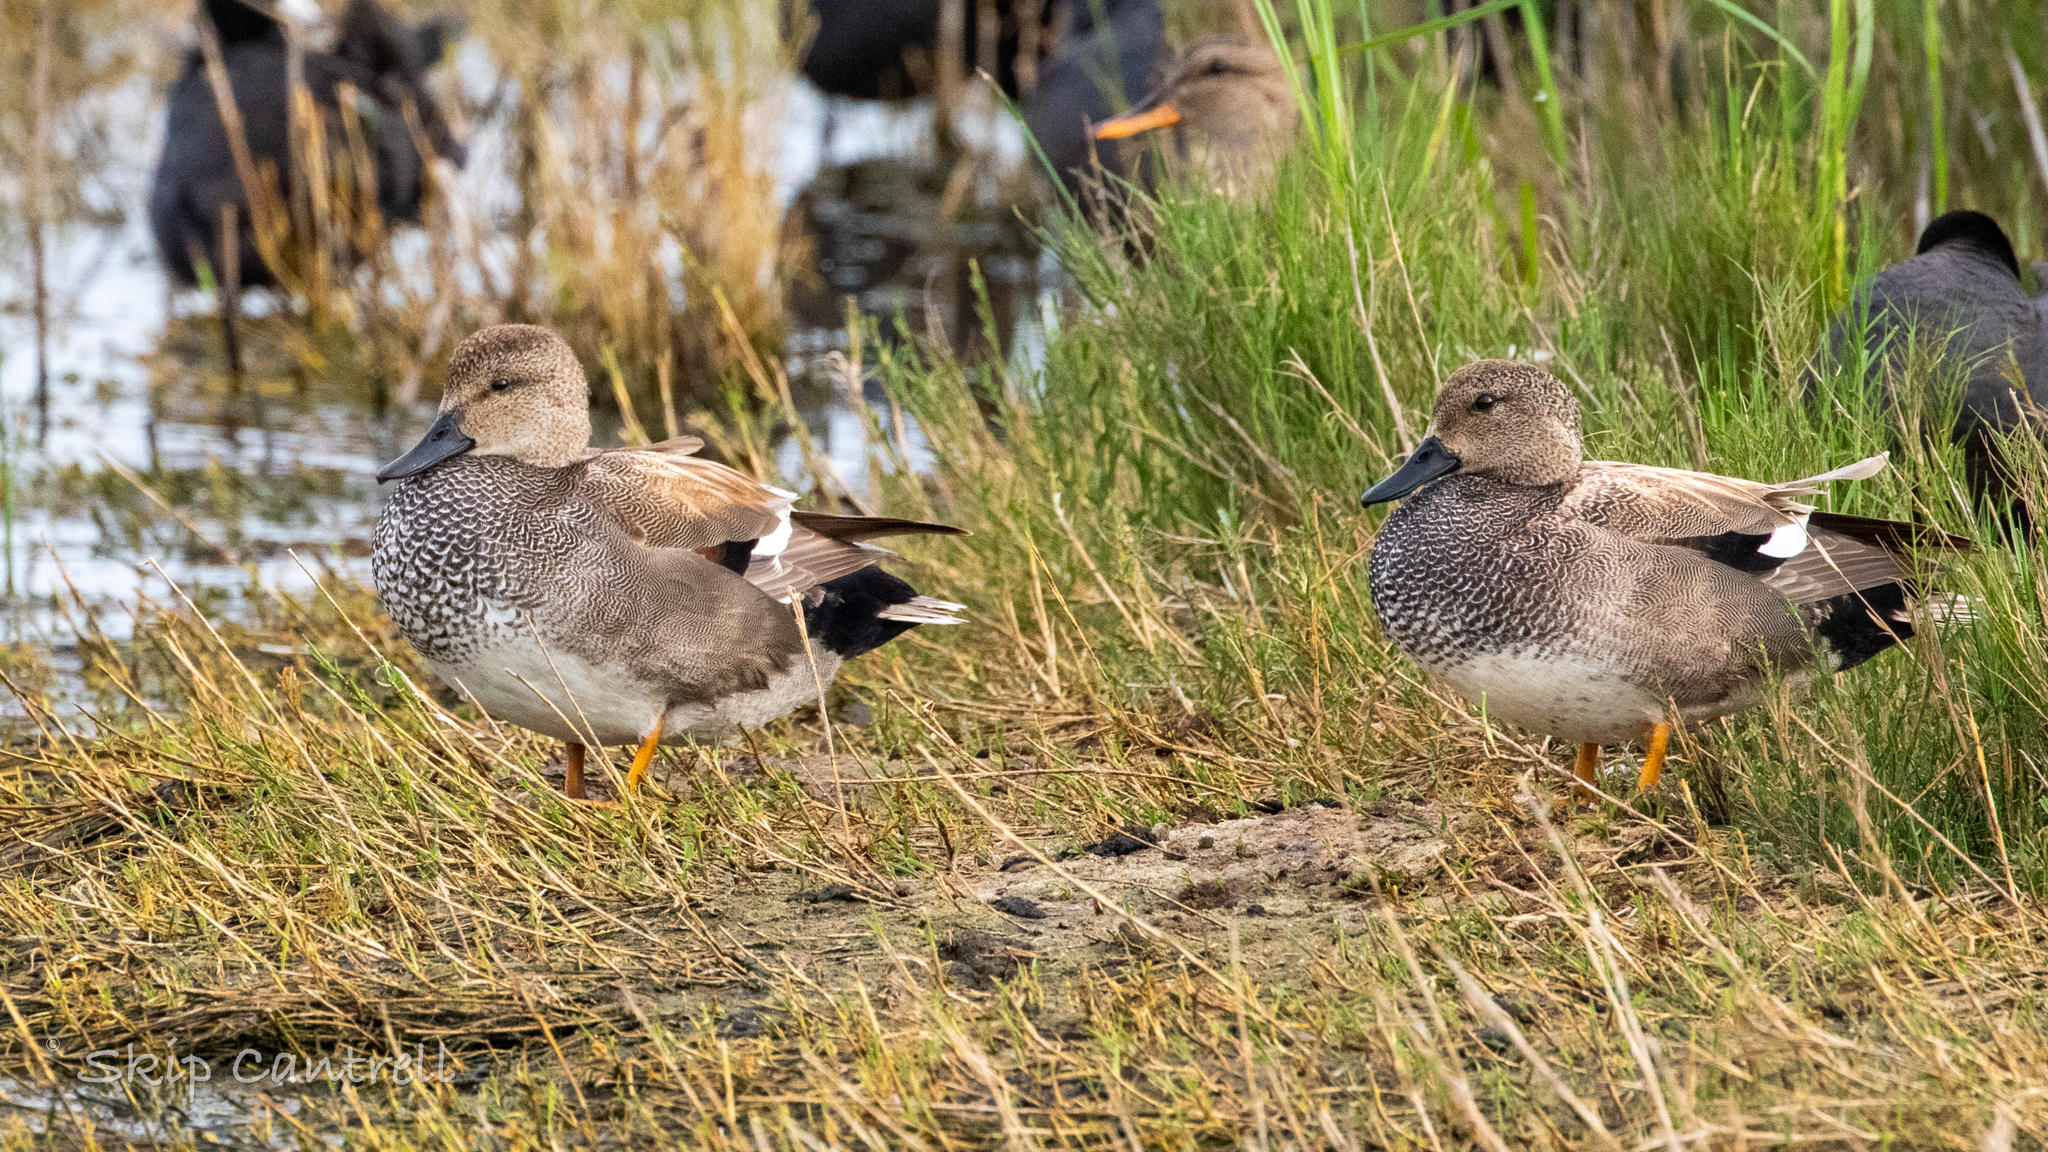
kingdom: Animalia
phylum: Chordata
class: Aves
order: Anseriformes
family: Anatidae
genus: Mareca
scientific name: Mareca strepera
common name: Gadwall
